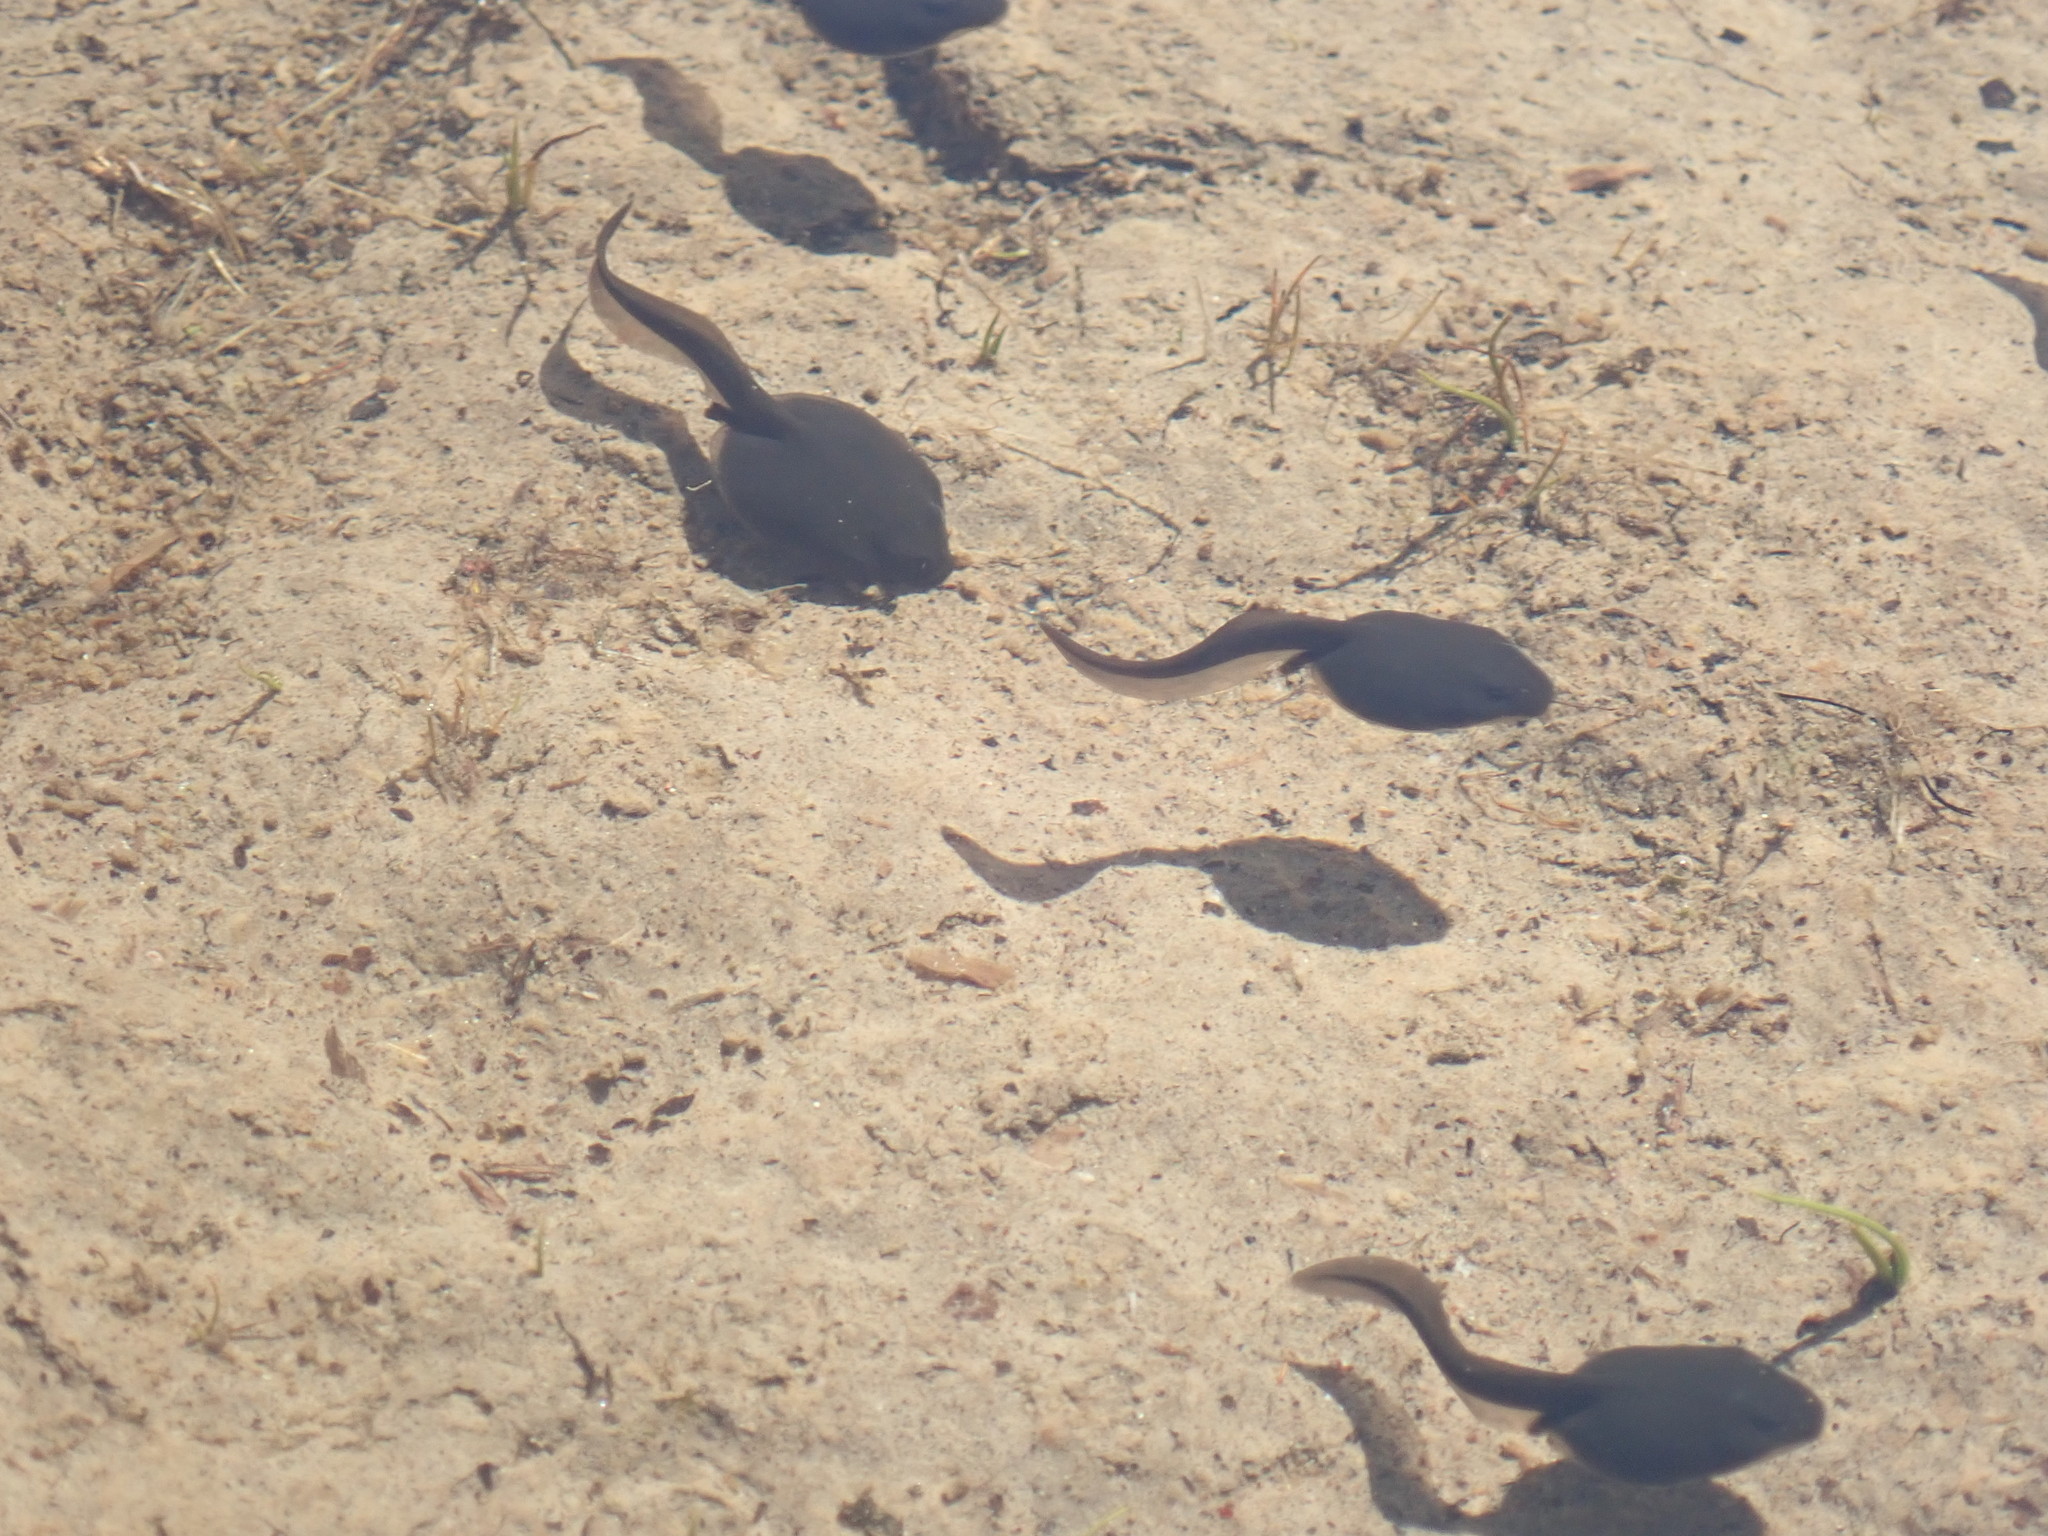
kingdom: Animalia
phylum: Chordata
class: Amphibia
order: Anura
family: Bufonidae
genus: Anaxyrus
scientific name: Anaxyrus boreas
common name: Western toad
